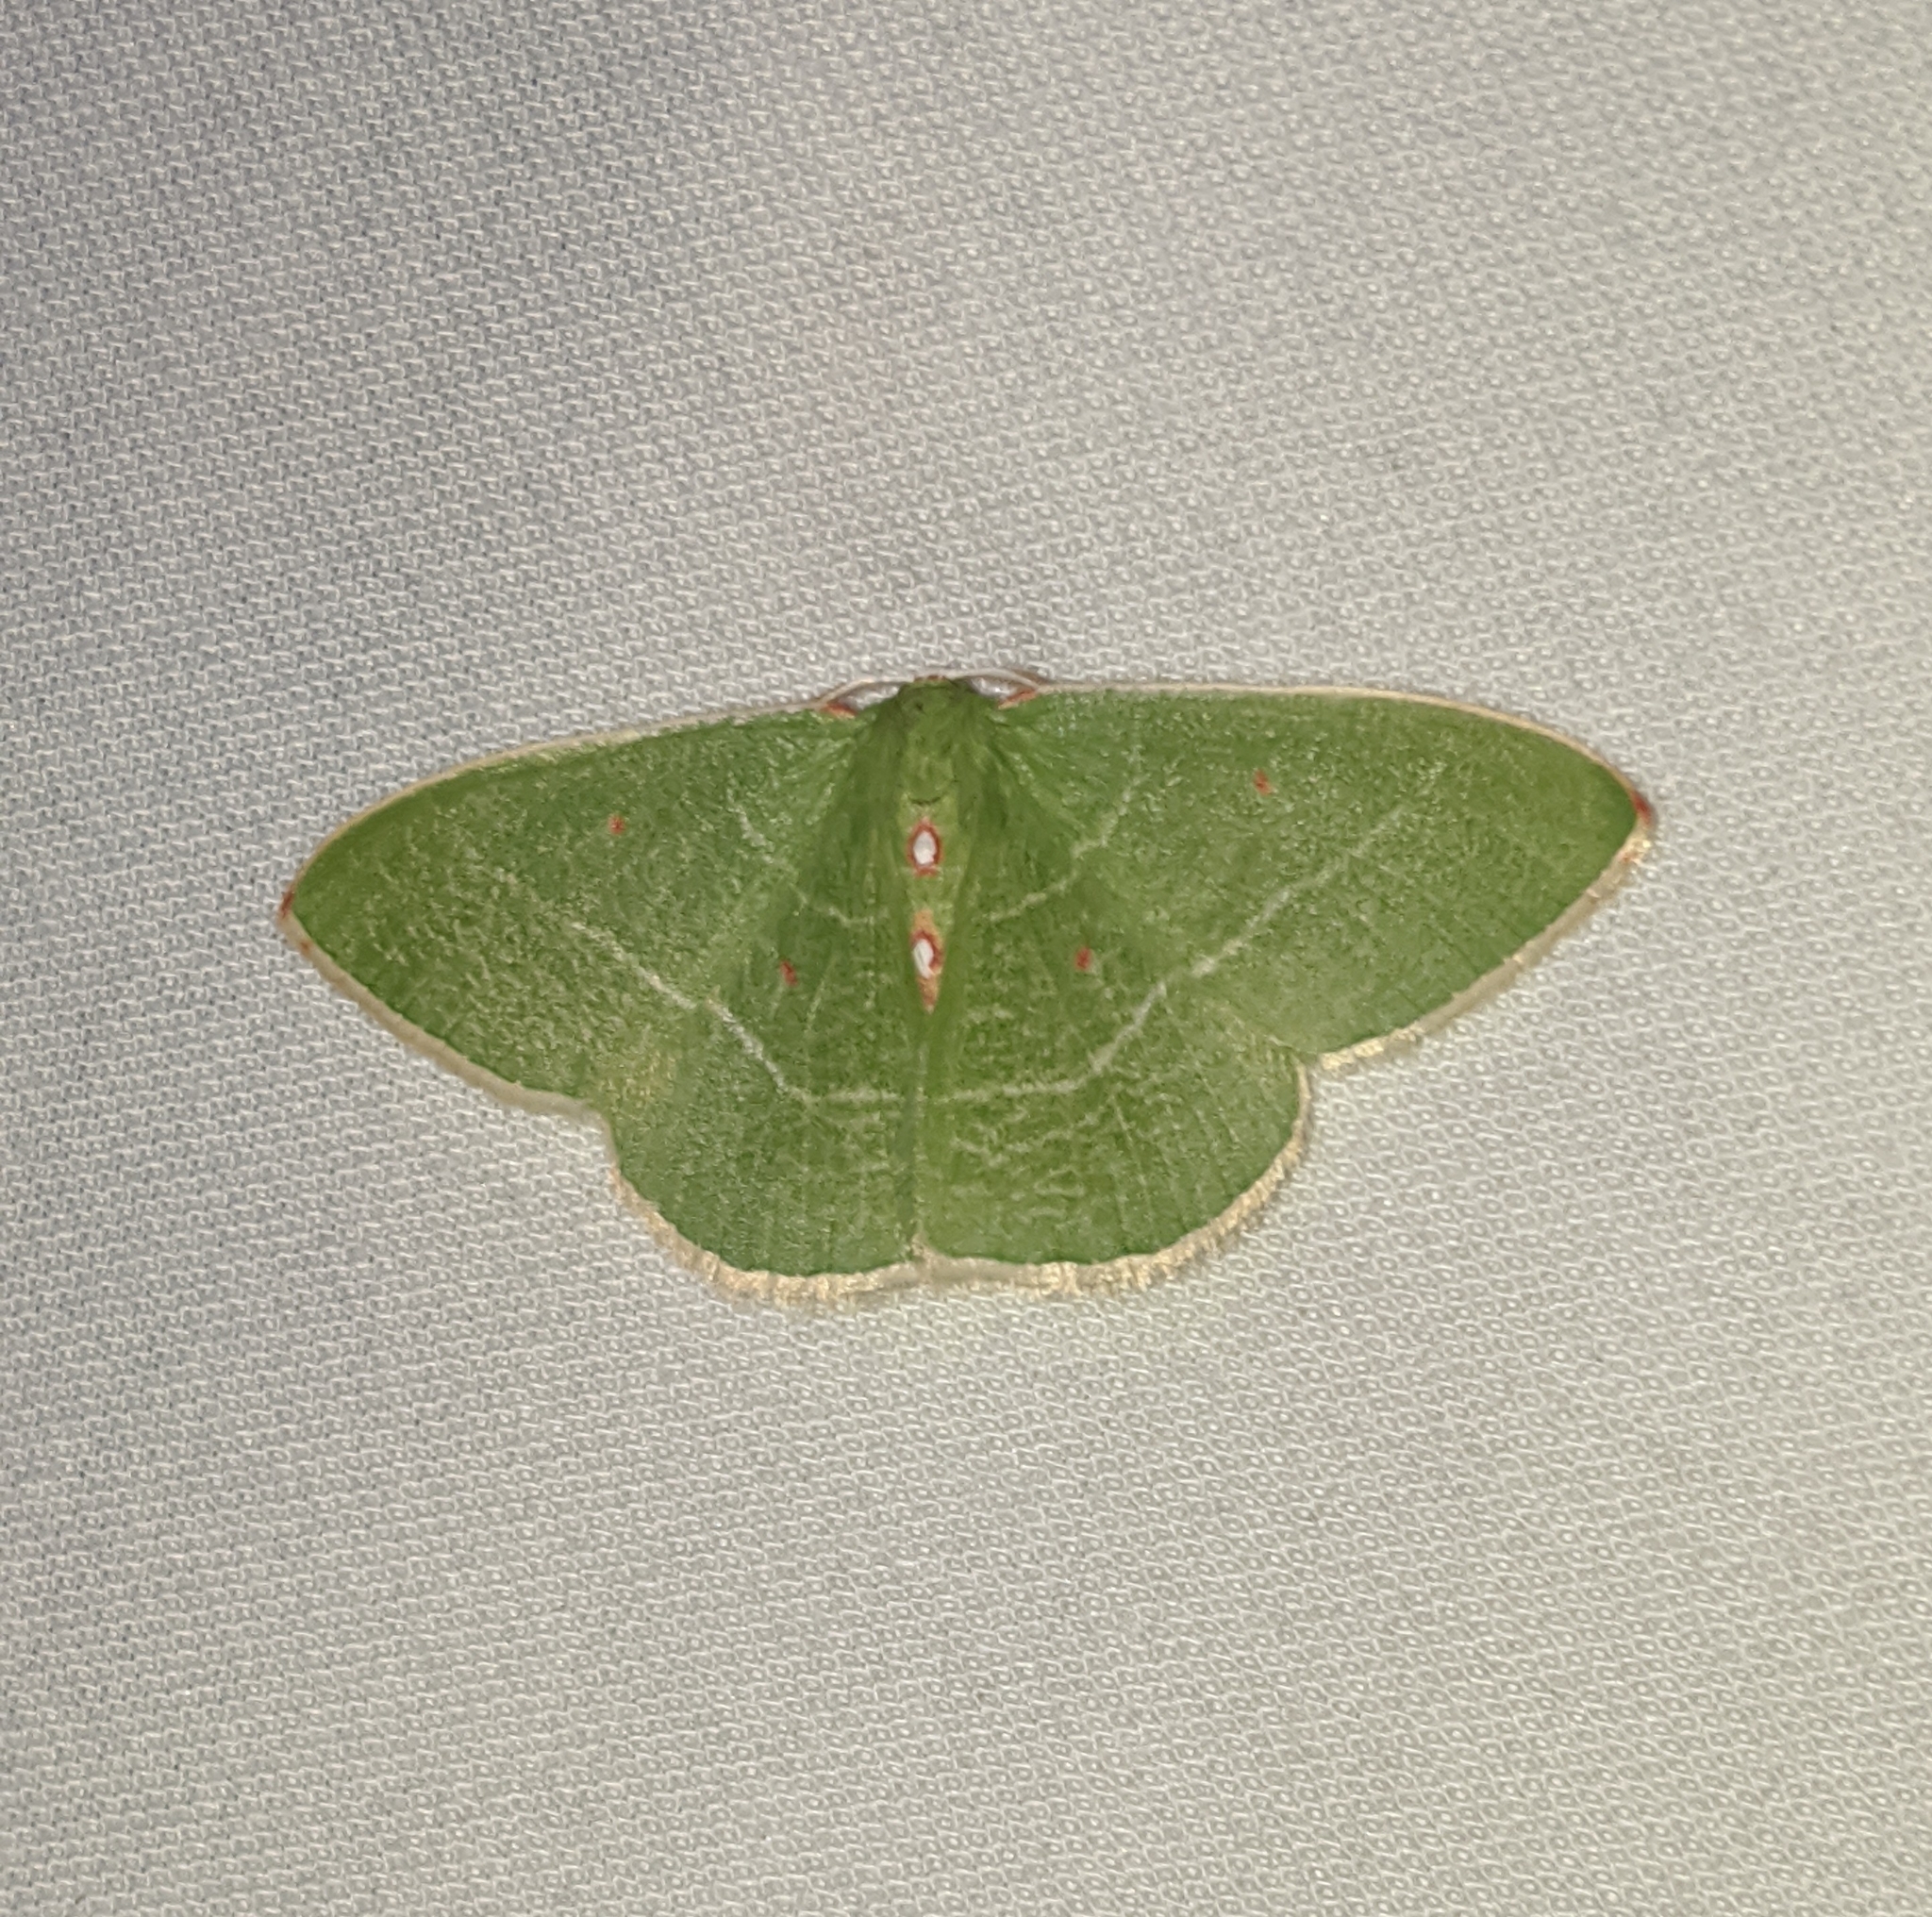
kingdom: Animalia
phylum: Arthropoda
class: Insecta
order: Lepidoptera
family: Geometridae
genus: Nemoria
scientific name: Nemoria darwiniata
